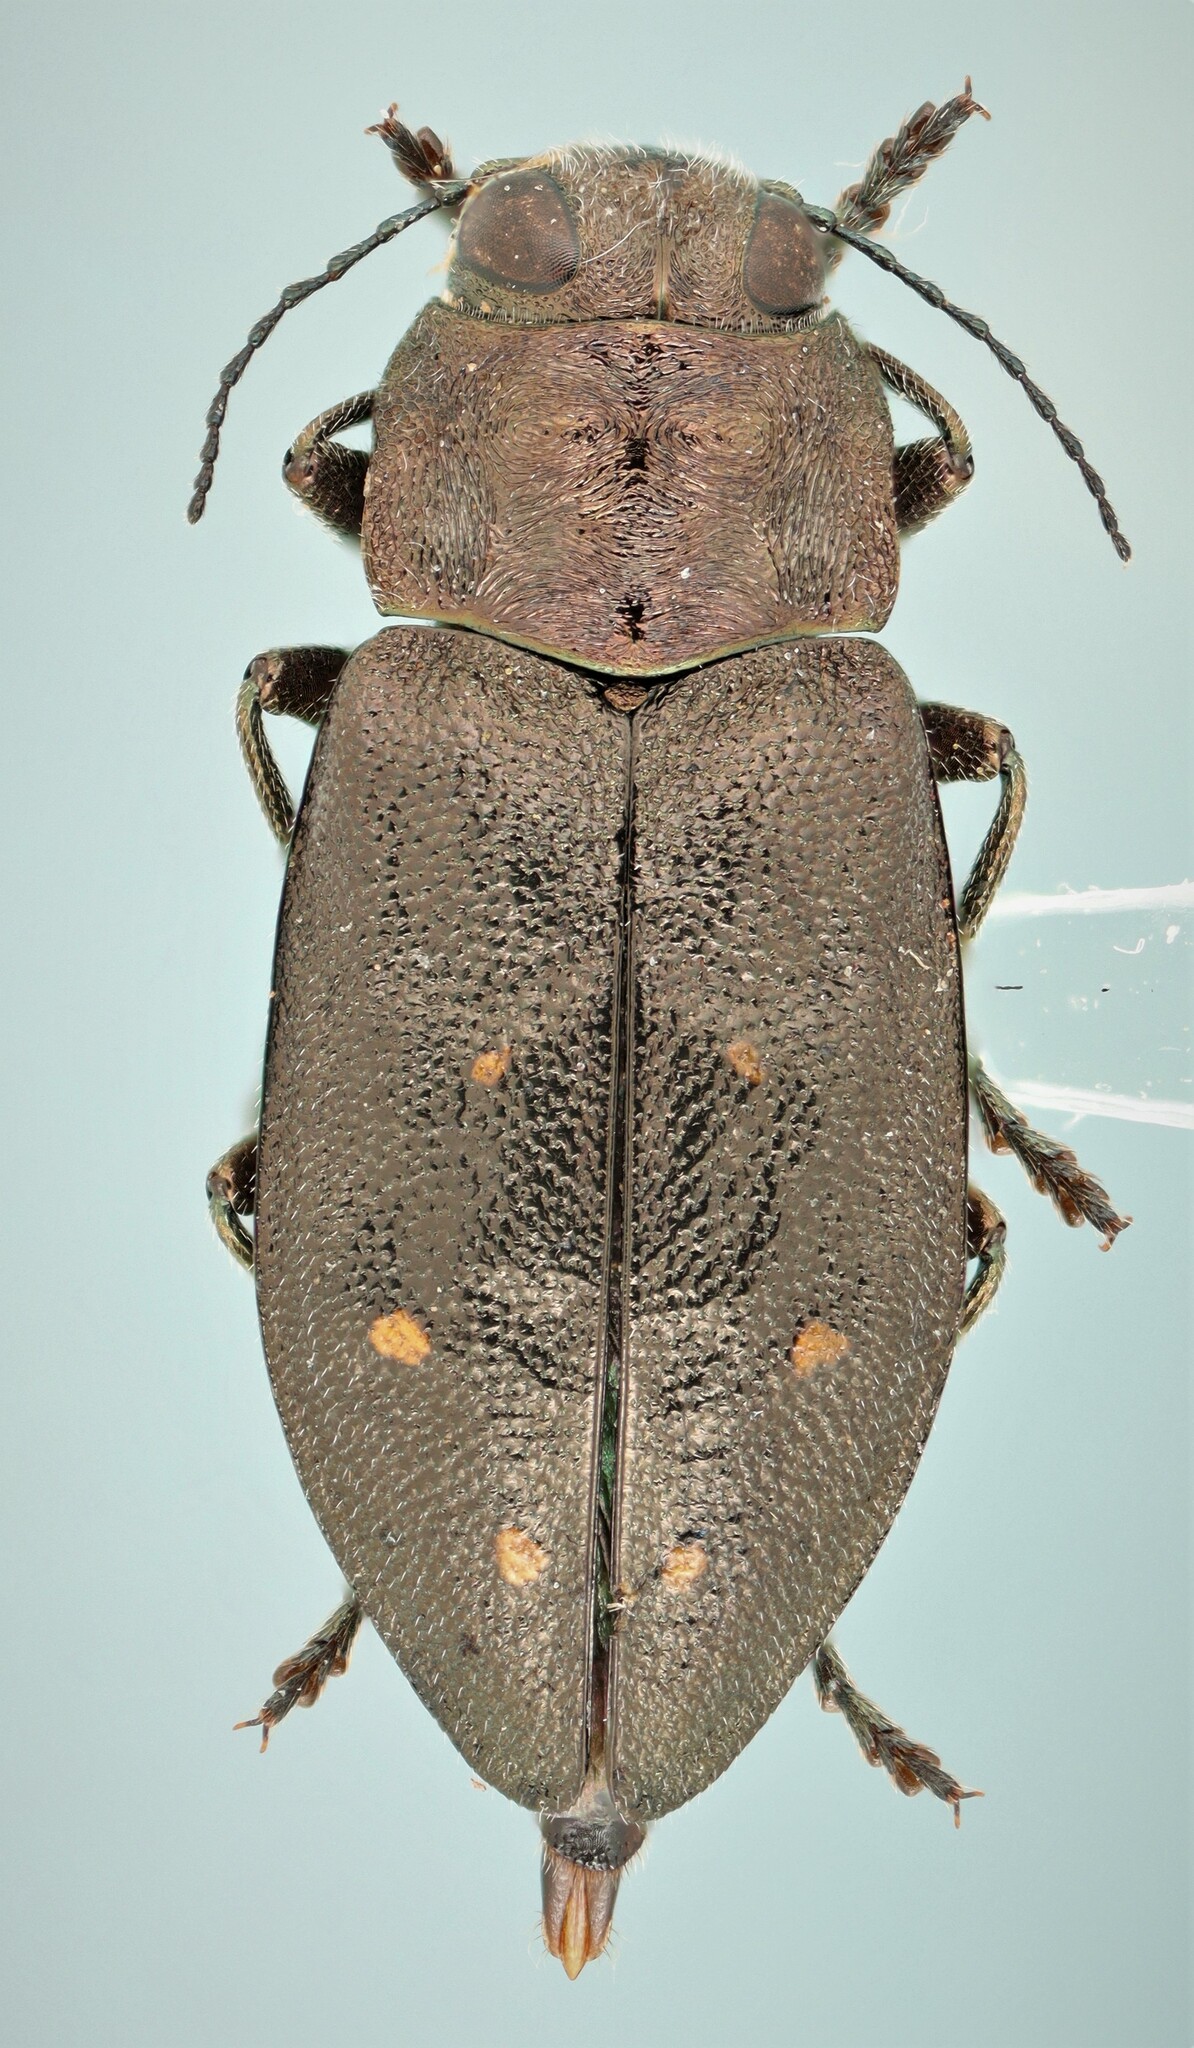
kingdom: Animalia
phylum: Arthropoda
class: Insecta
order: Coleoptera
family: Buprestidae
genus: Phaenops
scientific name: Phaenops drummondi
